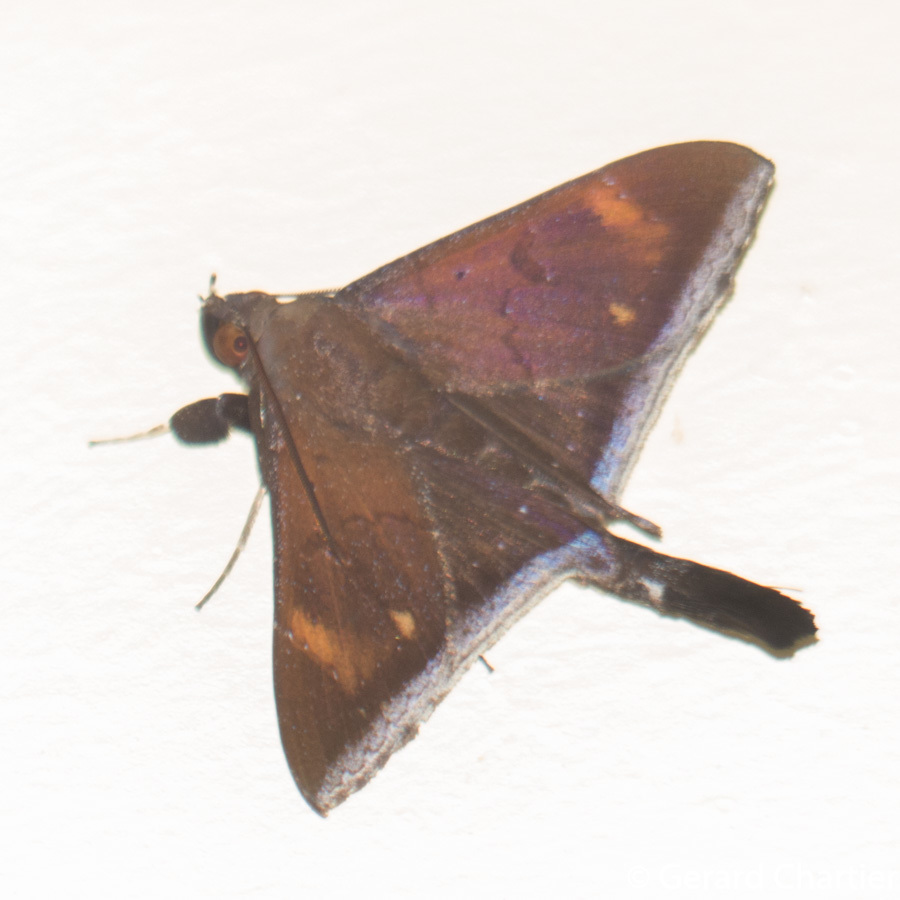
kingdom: Animalia
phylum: Arthropoda
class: Insecta
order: Lepidoptera
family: Erebidae
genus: Platyja
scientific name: Platyja umbrina
